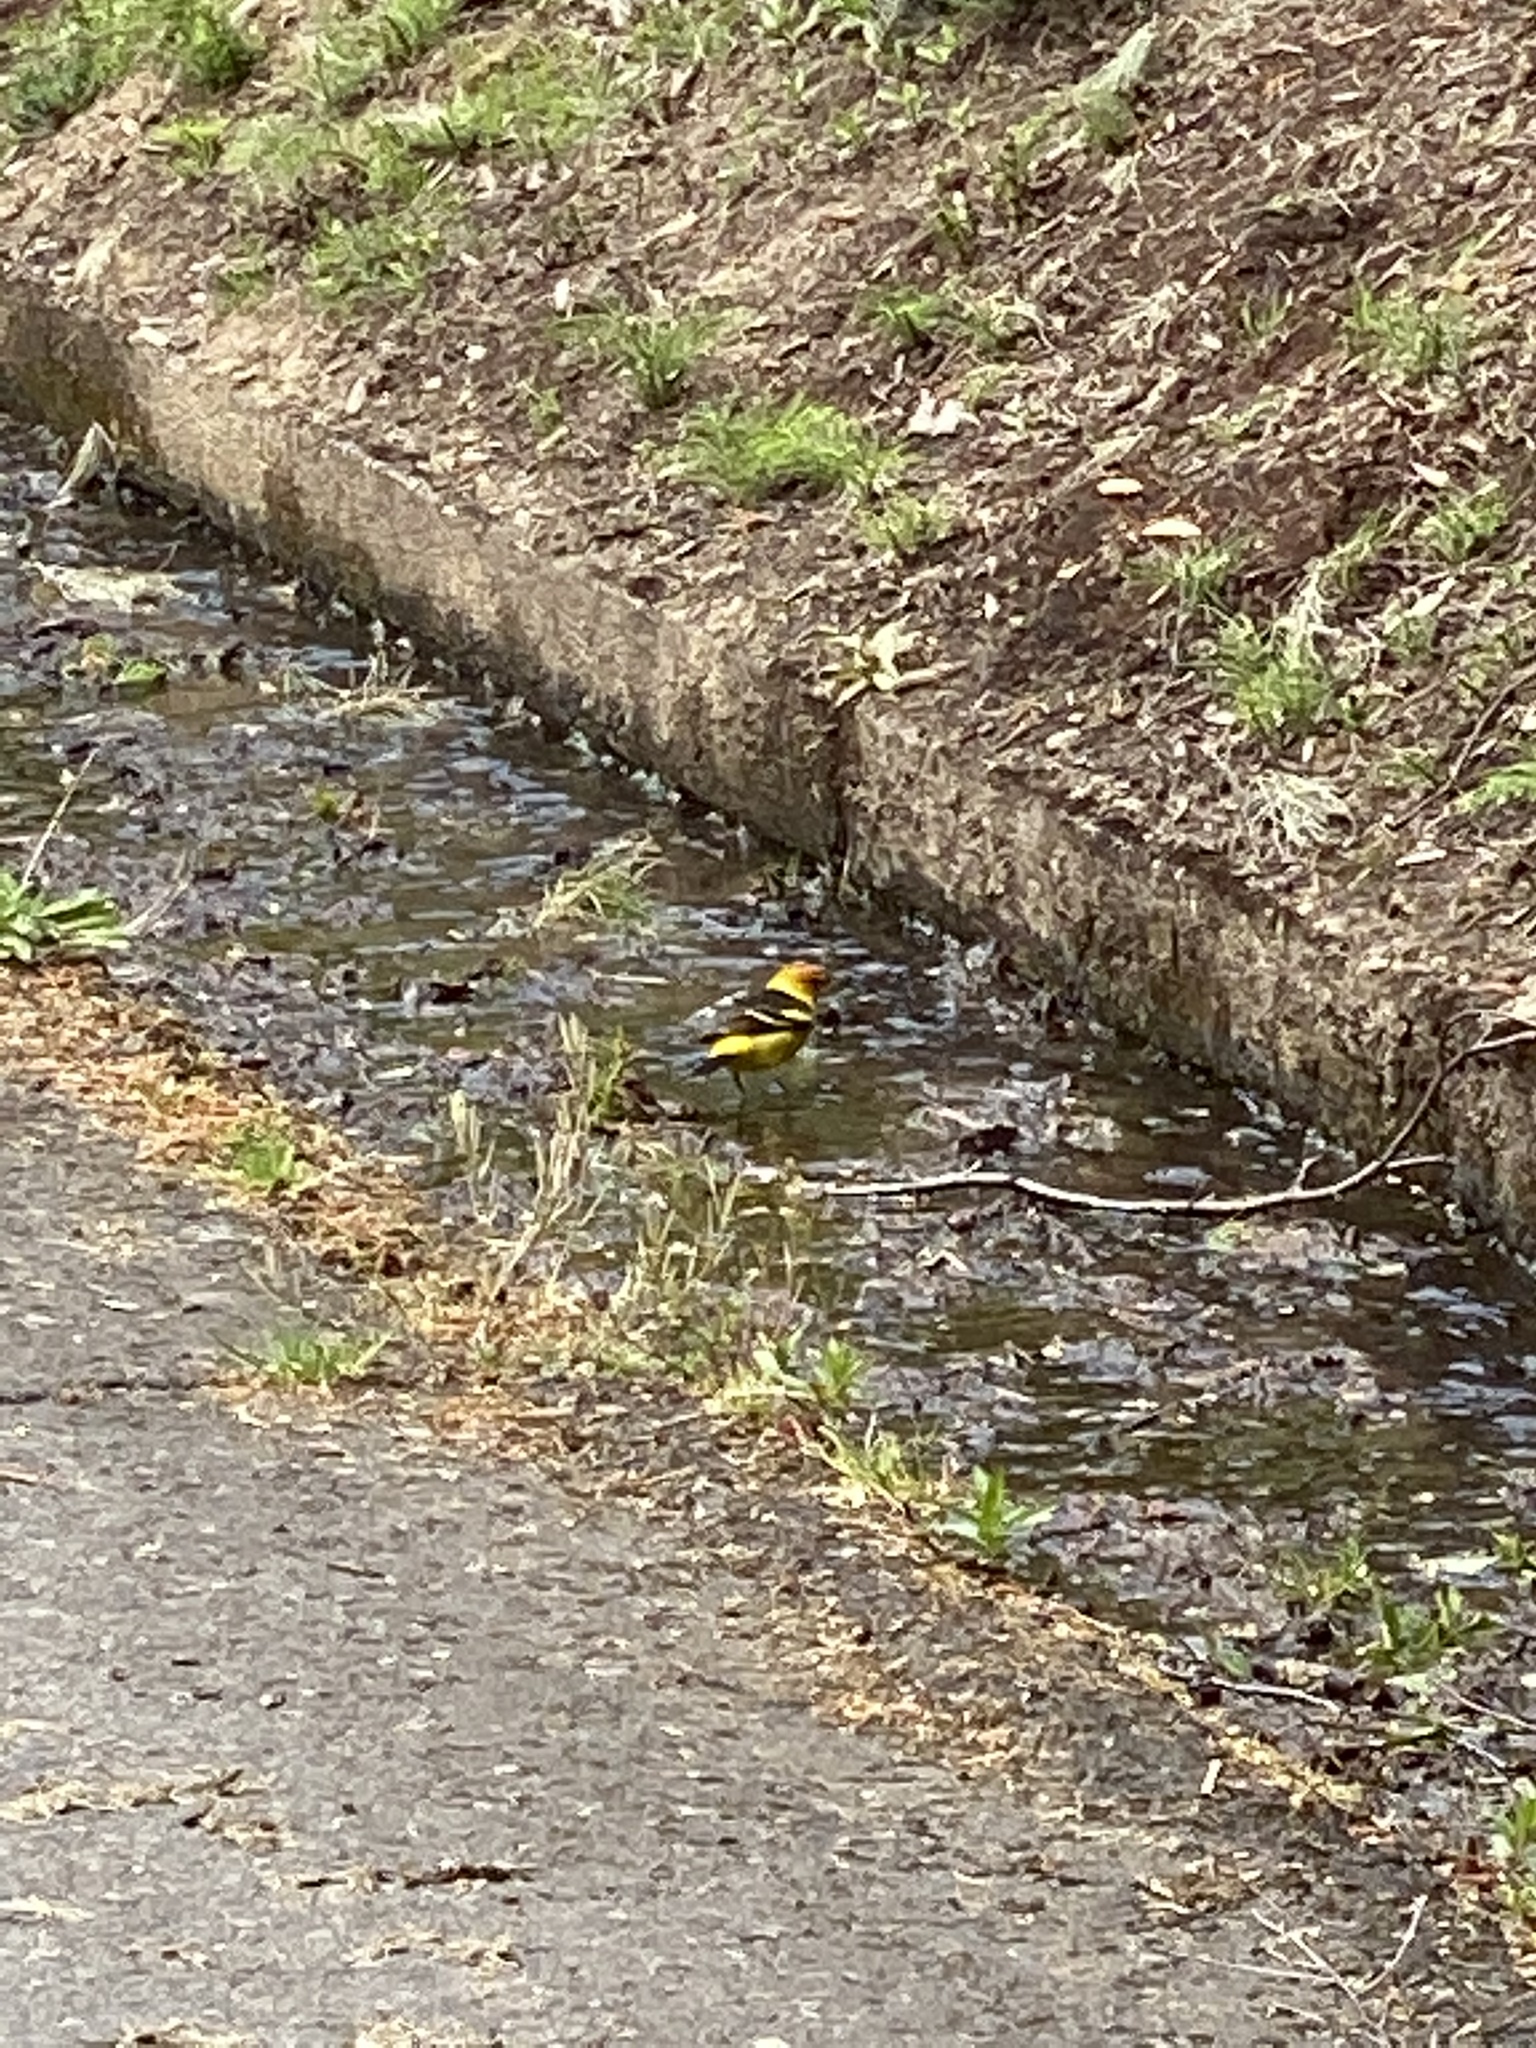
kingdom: Animalia
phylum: Chordata
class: Aves
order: Passeriformes
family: Cardinalidae
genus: Piranga
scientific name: Piranga ludoviciana
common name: Western tanager
